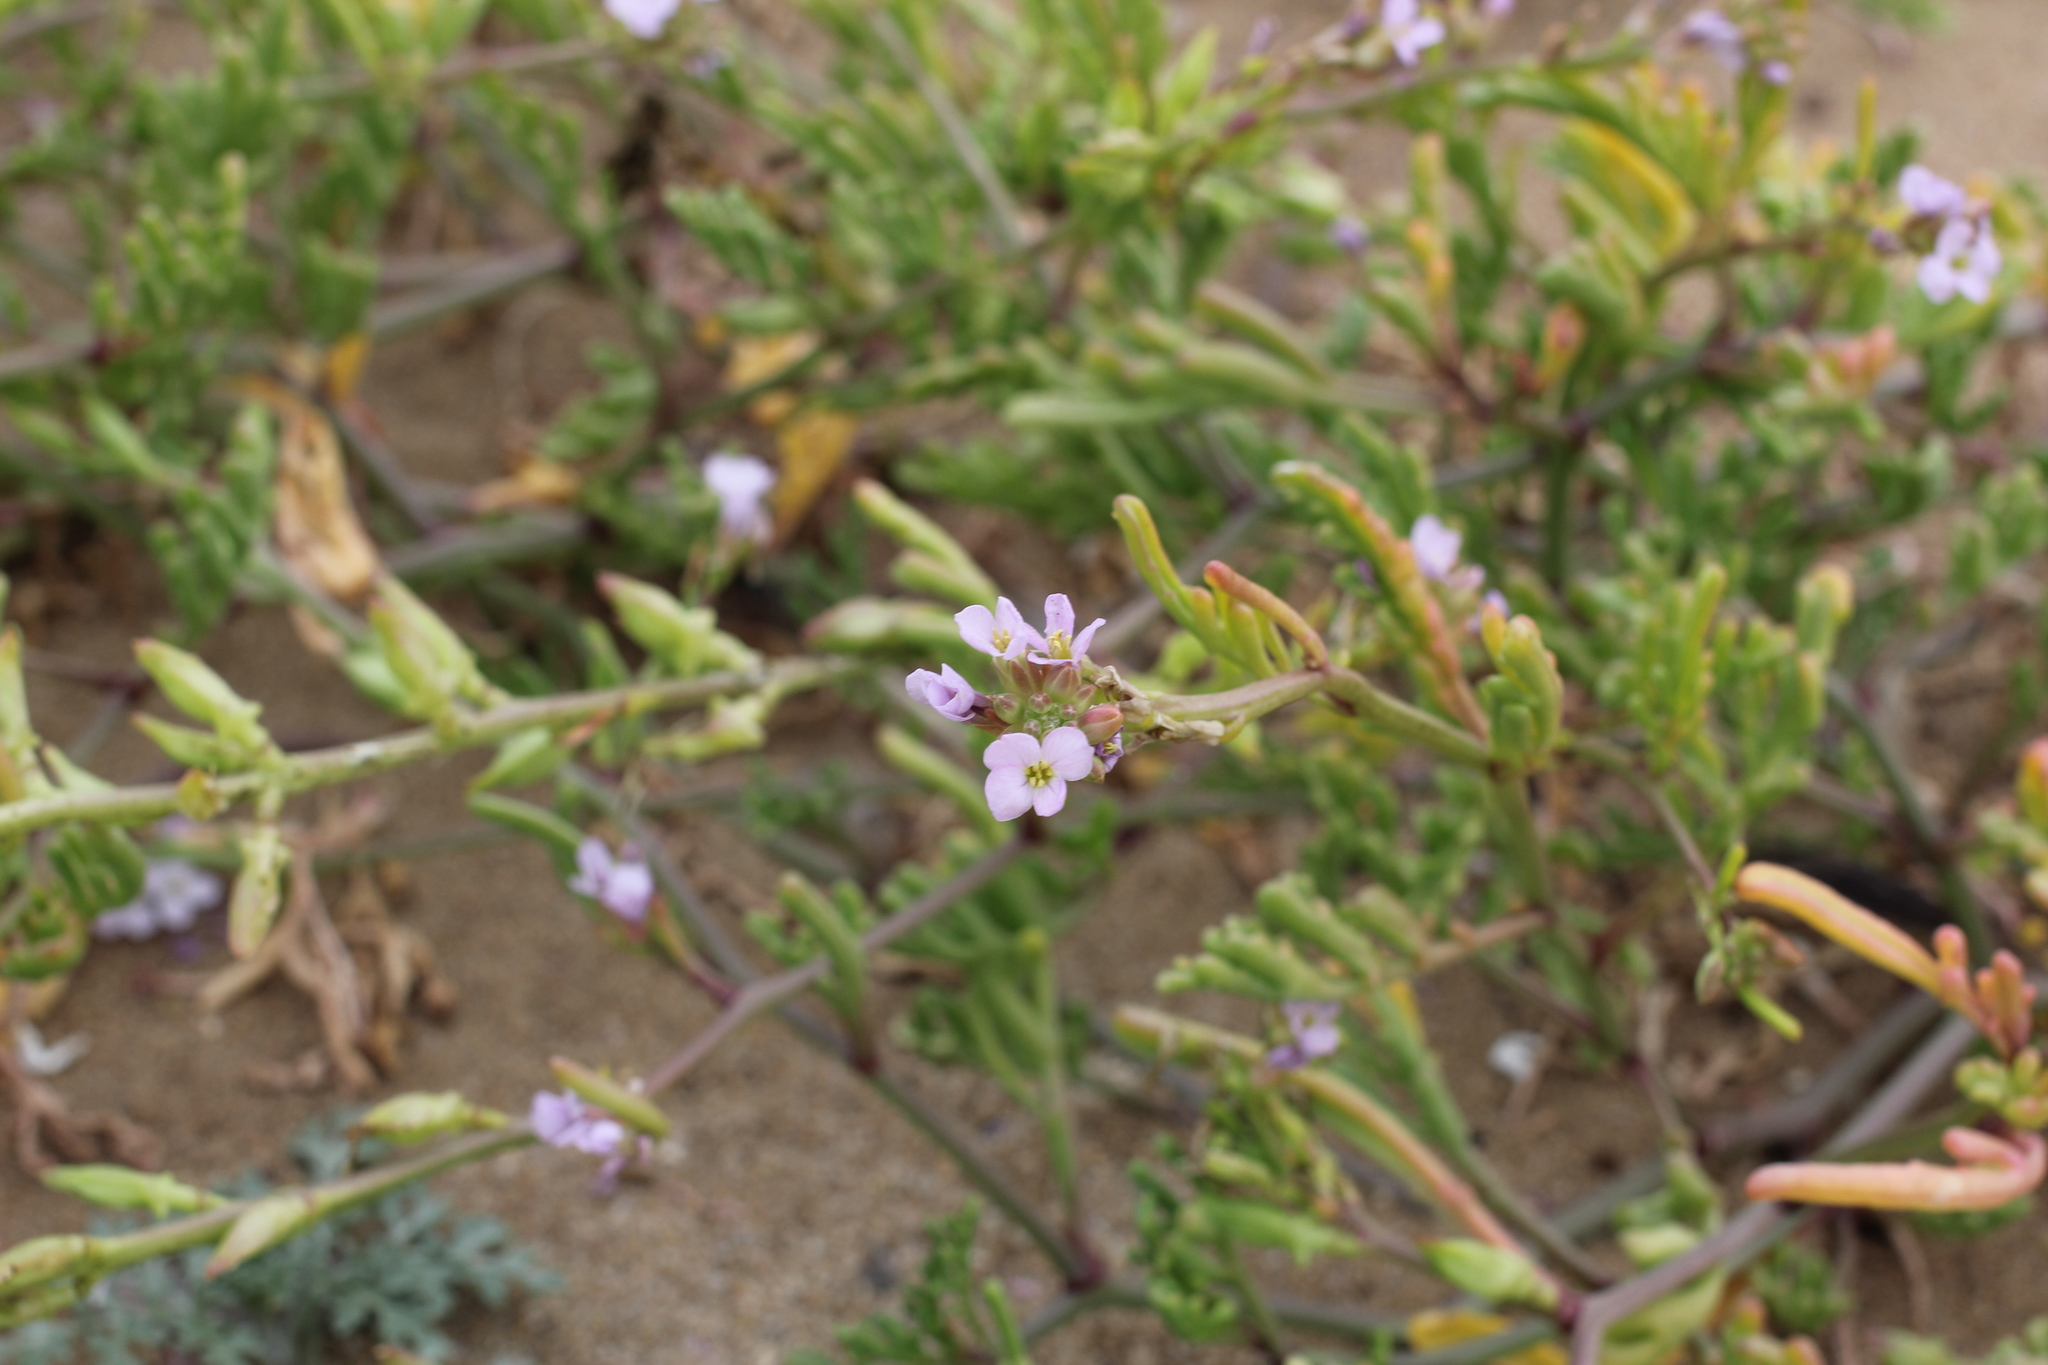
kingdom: Plantae
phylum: Tracheophyta
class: Magnoliopsida
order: Brassicales
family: Brassicaceae
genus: Cakile
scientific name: Cakile maritima
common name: Sea rocket
